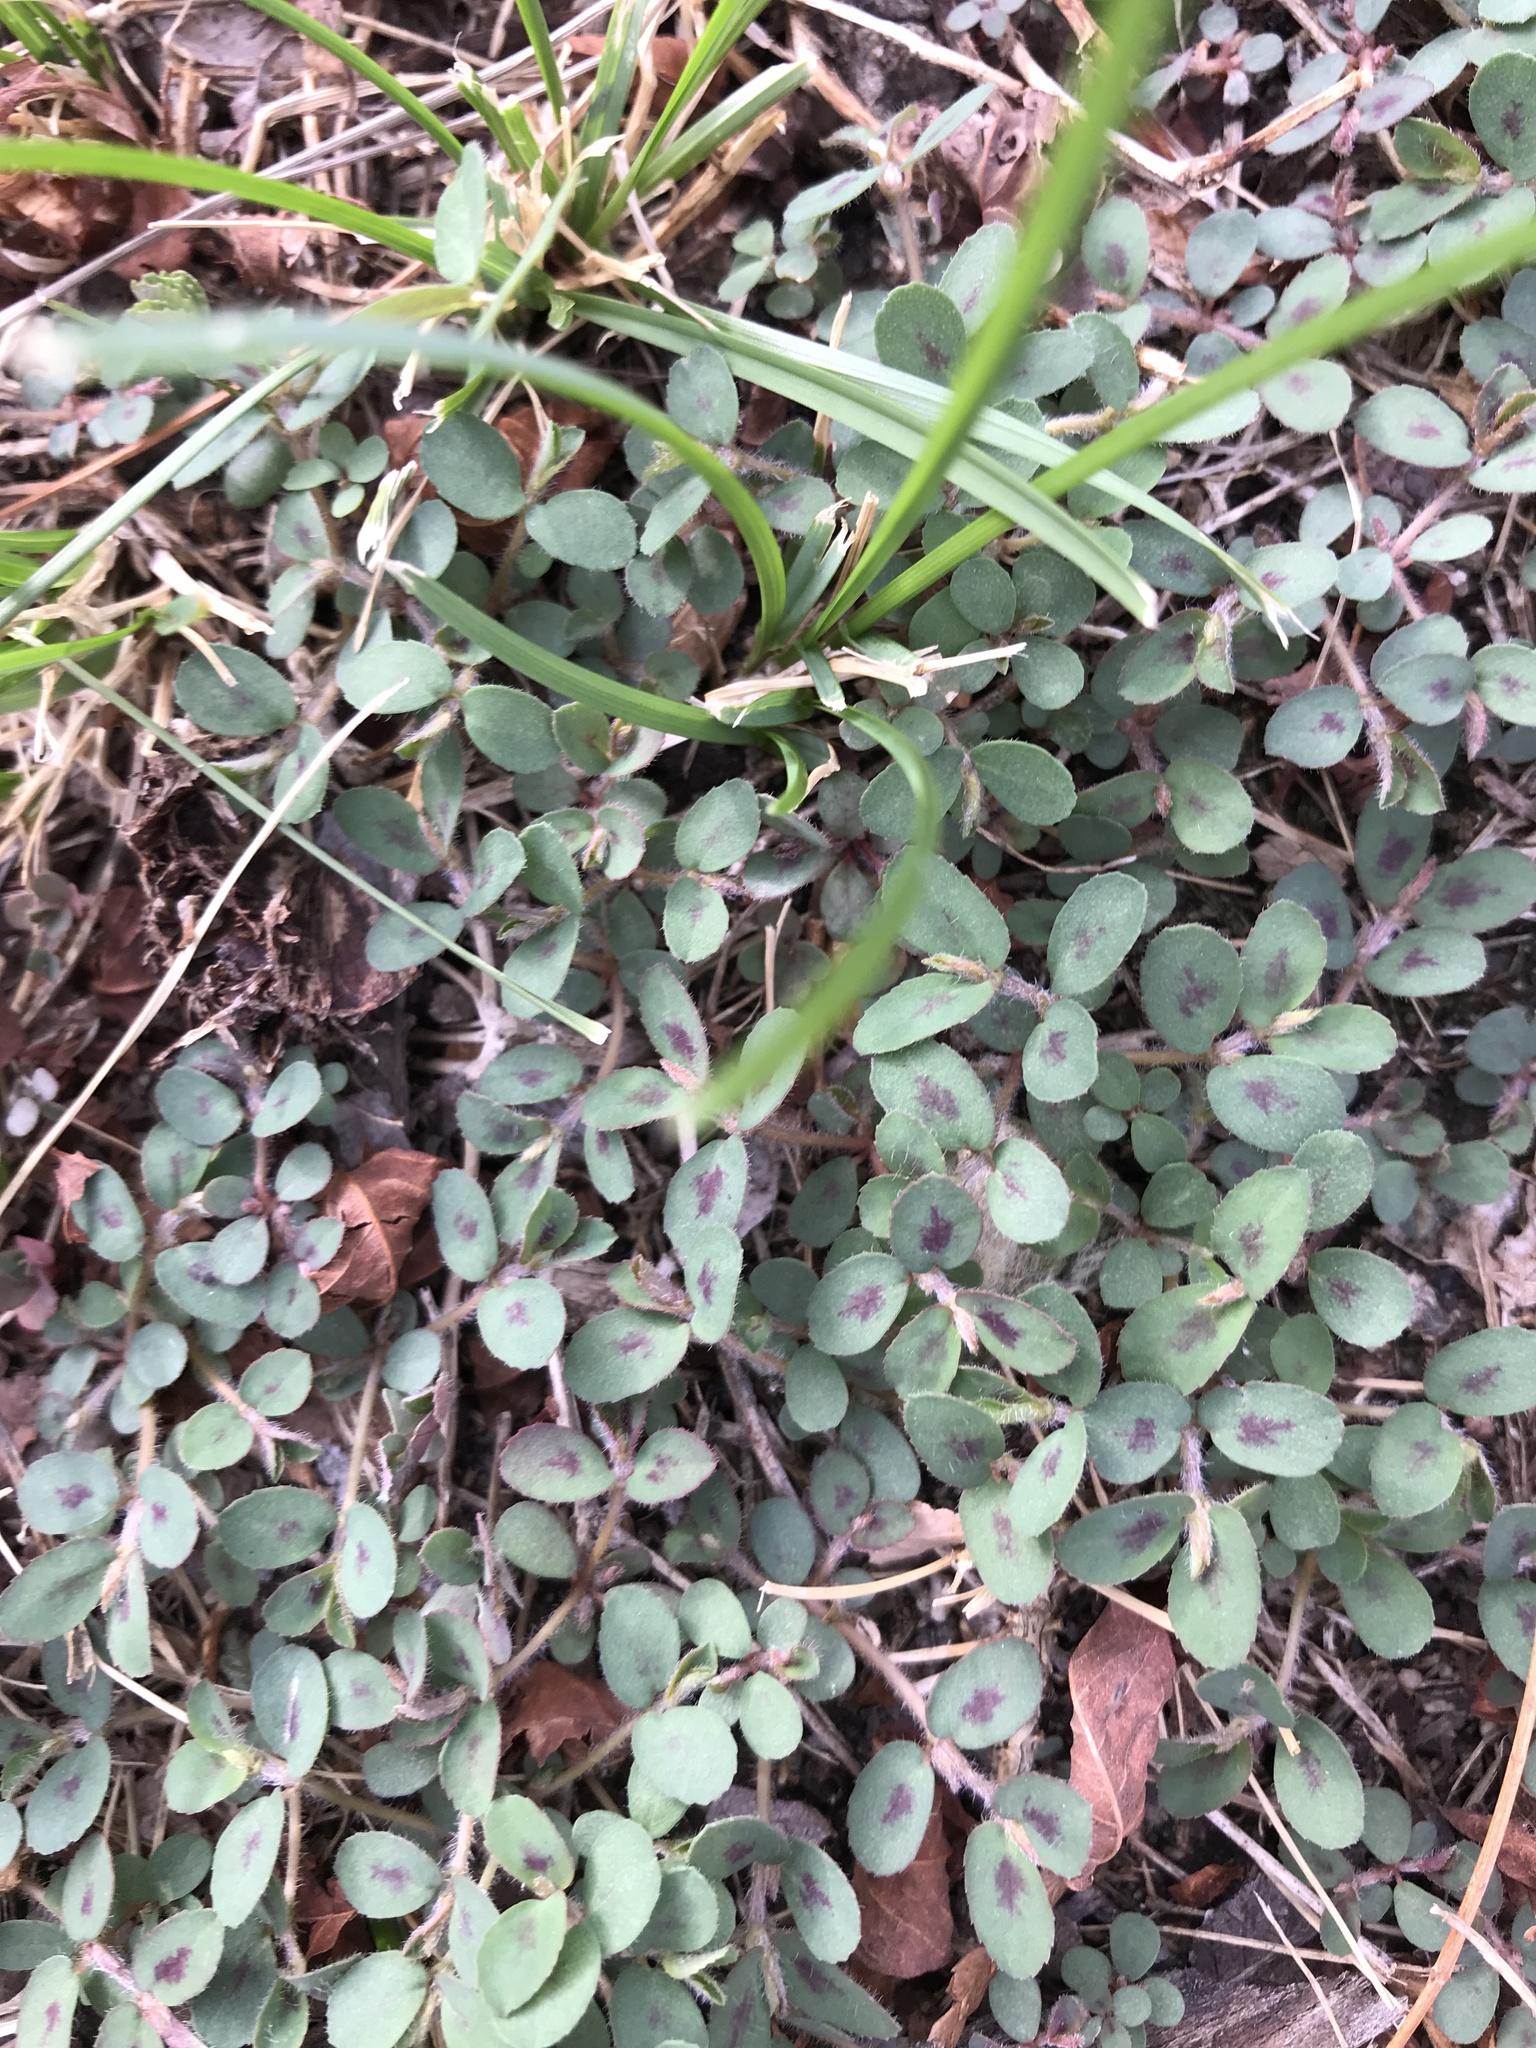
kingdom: Plantae
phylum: Tracheophyta
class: Magnoliopsida
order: Malpighiales
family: Euphorbiaceae
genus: Euphorbia
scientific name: Euphorbia maculata
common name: Spotted spurge
